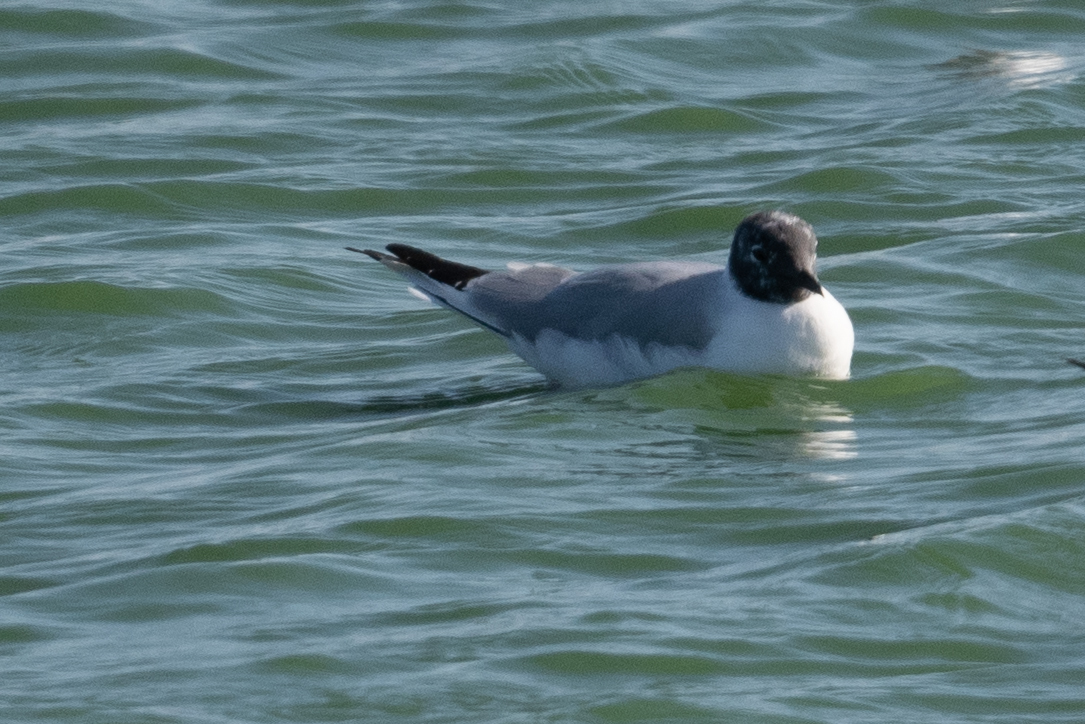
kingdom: Animalia
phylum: Chordata
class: Aves
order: Charadriiformes
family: Laridae
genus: Chroicocephalus
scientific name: Chroicocephalus philadelphia
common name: Bonaparte's gull
